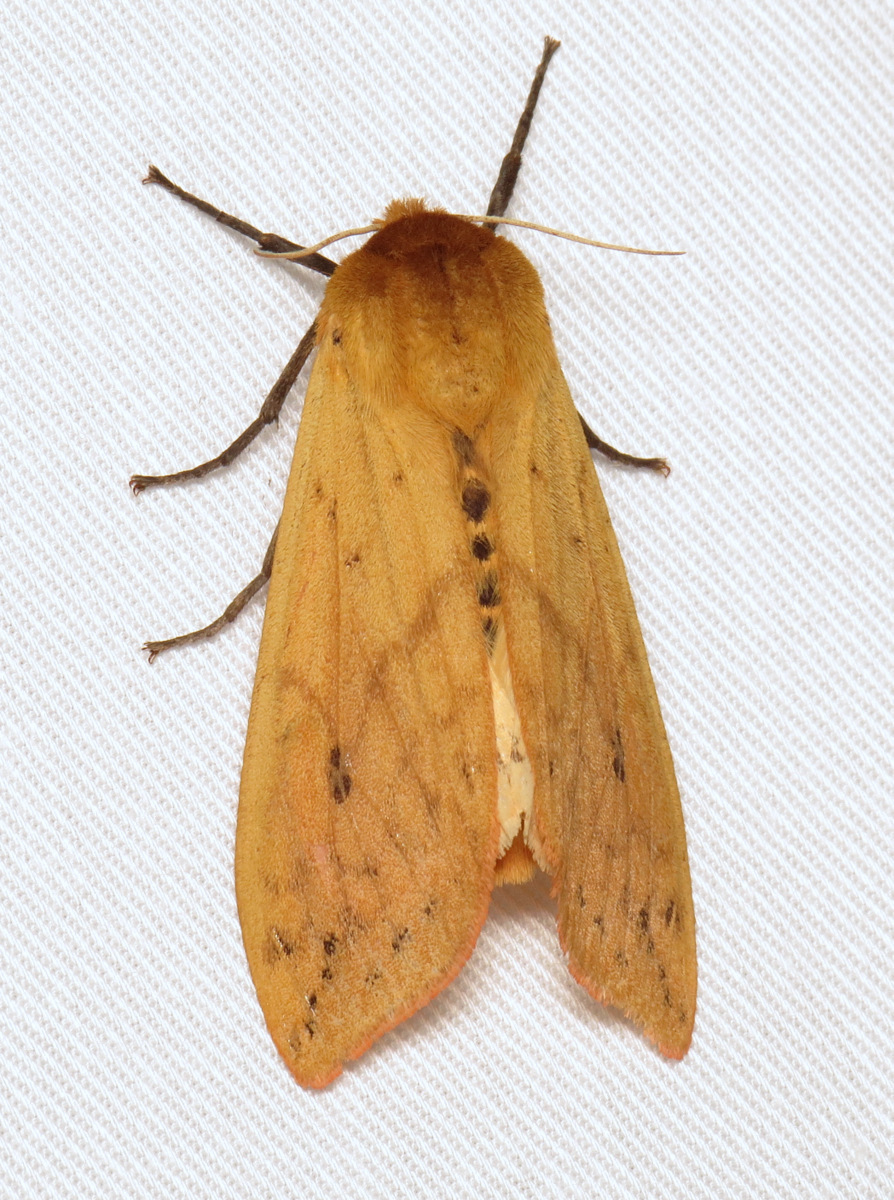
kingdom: Animalia
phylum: Arthropoda
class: Insecta
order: Lepidoptera
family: Erebidae
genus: Pyrrharctia
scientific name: Pyrrharctia isabella
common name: Isabella tiger moth
